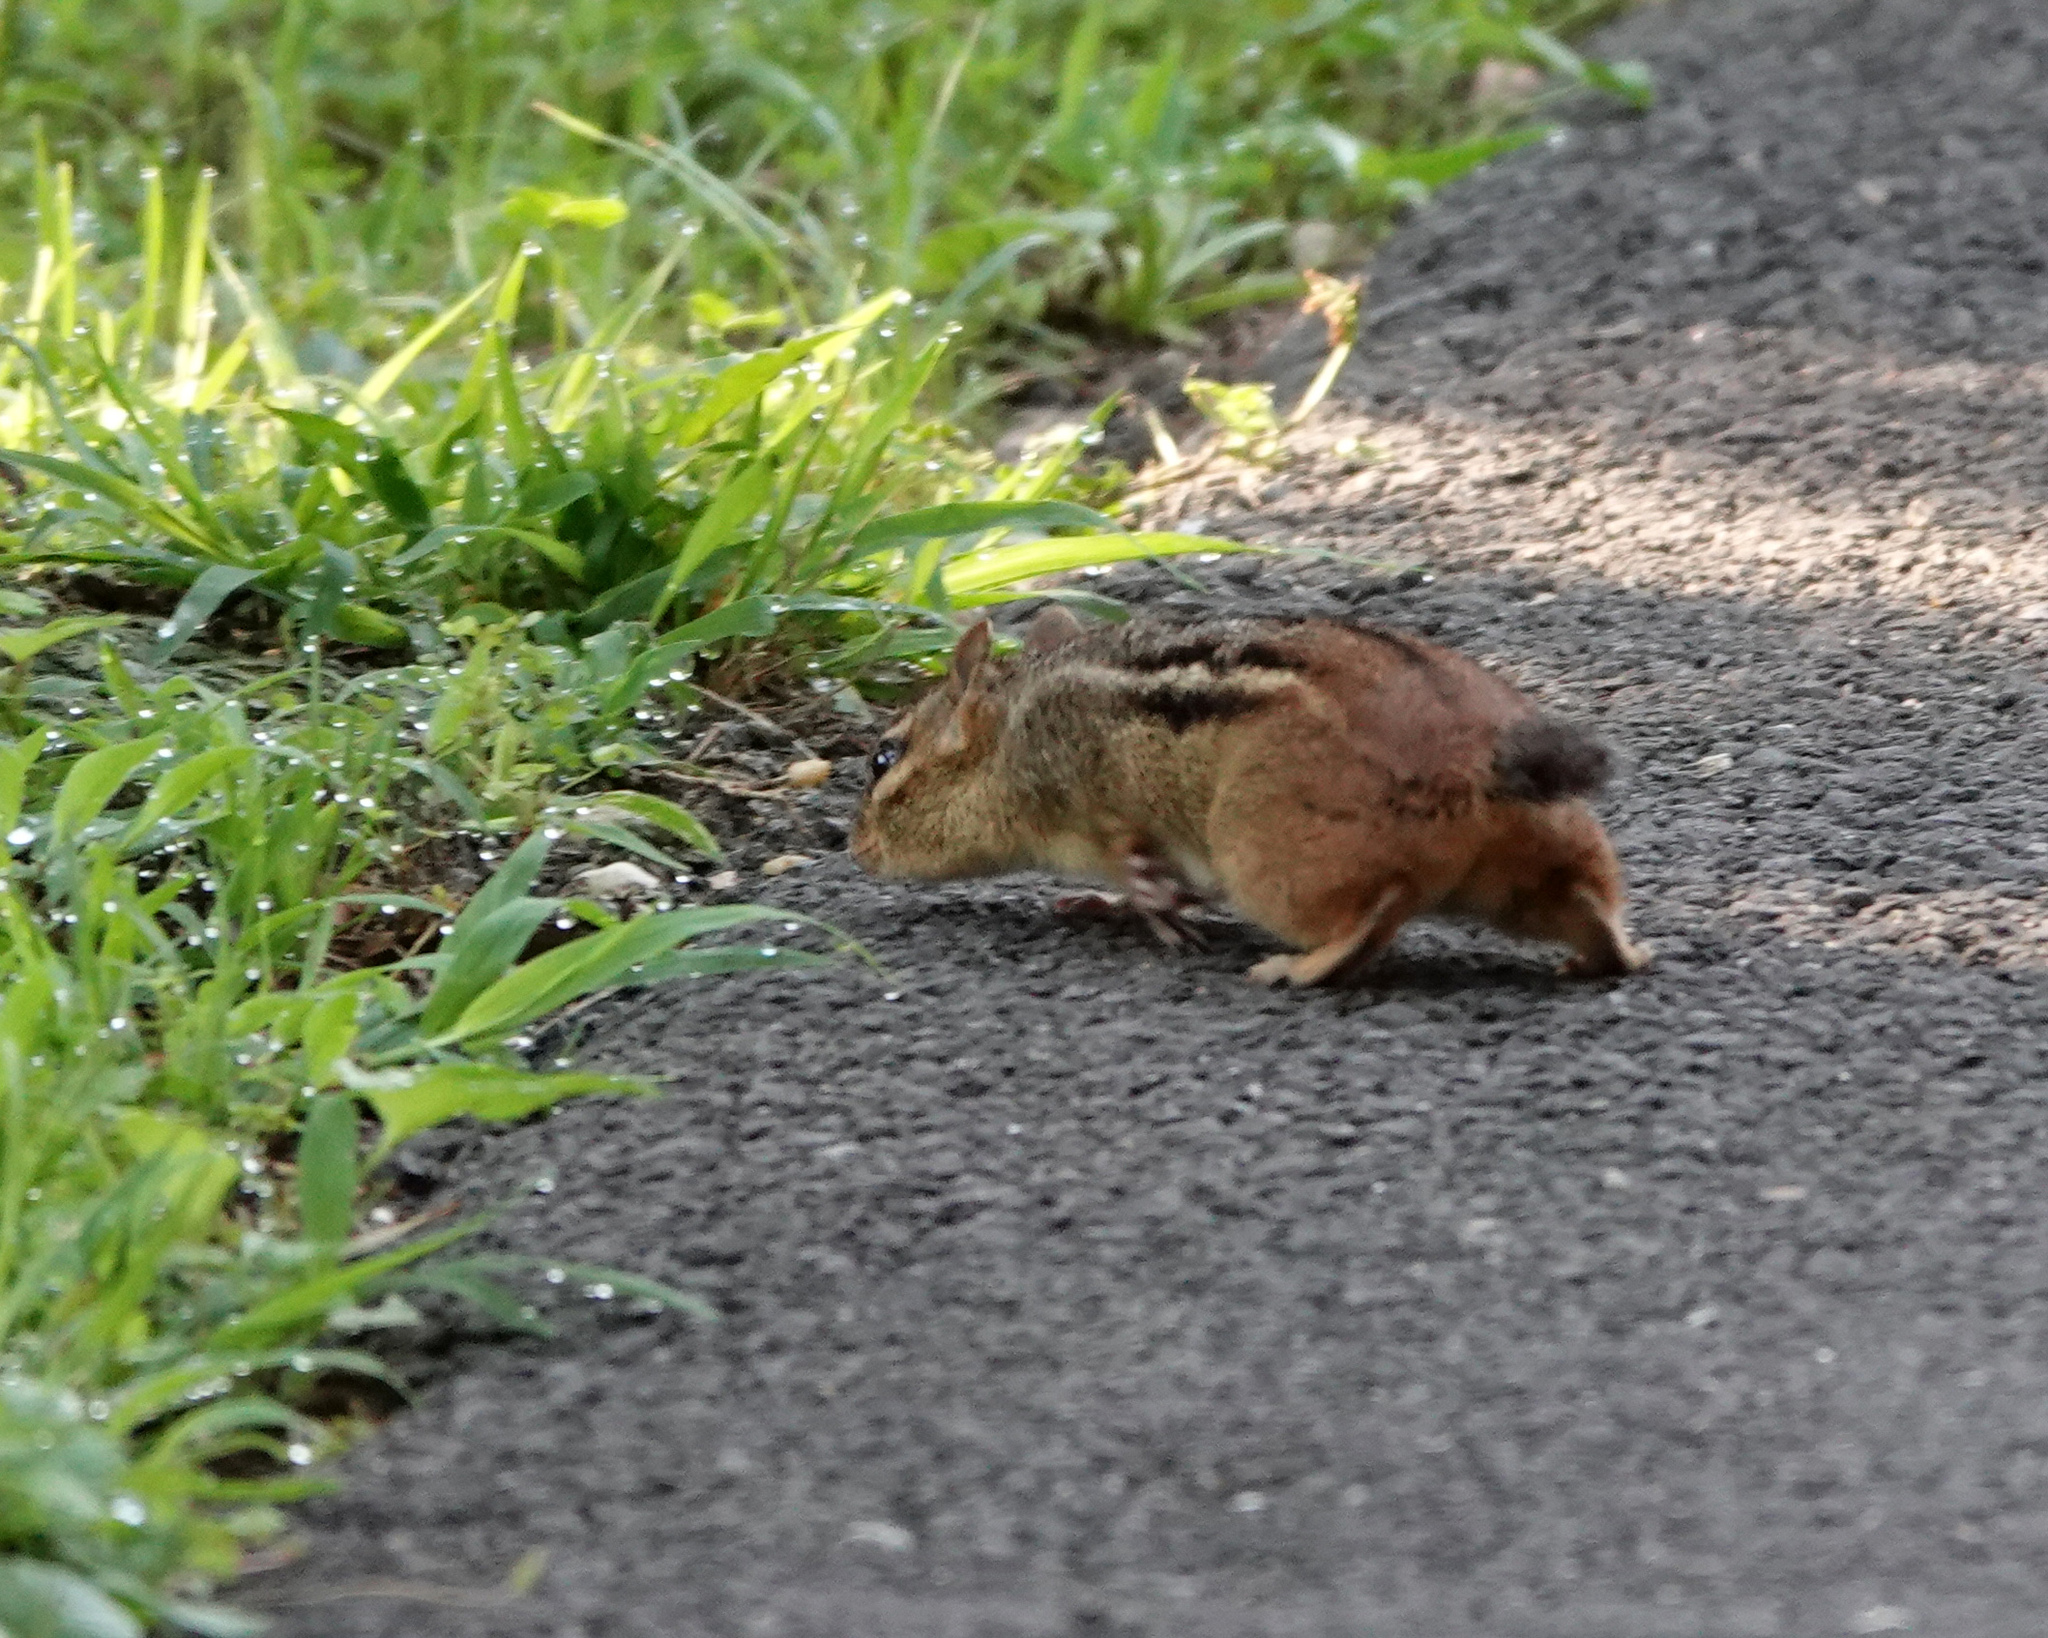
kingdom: Animalia
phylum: Chordata
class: Mammalia
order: Rodentia
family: Sciuridae
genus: Tamias
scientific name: Tamias striatus
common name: Eastern chipmunk
